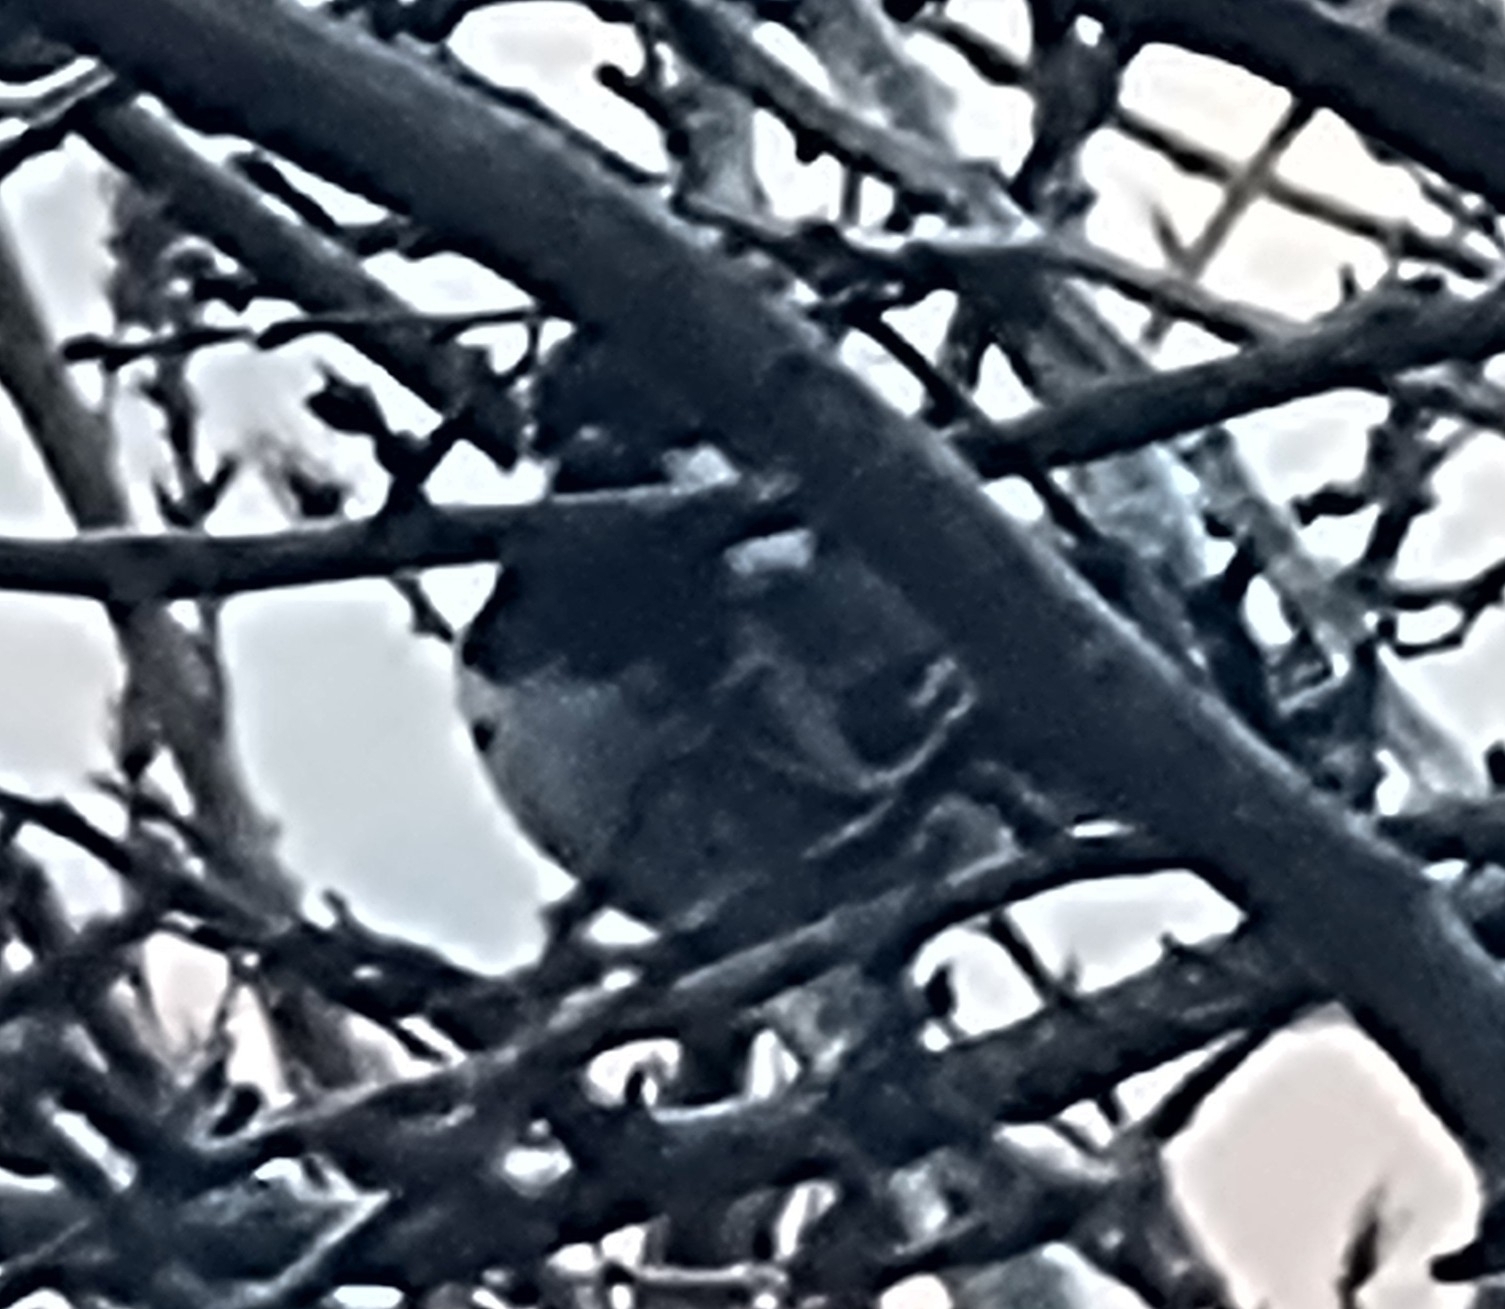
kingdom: Animalia
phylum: Chordata
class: Aves
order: Passeriformes
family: Paridae
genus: Periparus
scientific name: Periparus ater
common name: Coal tit
